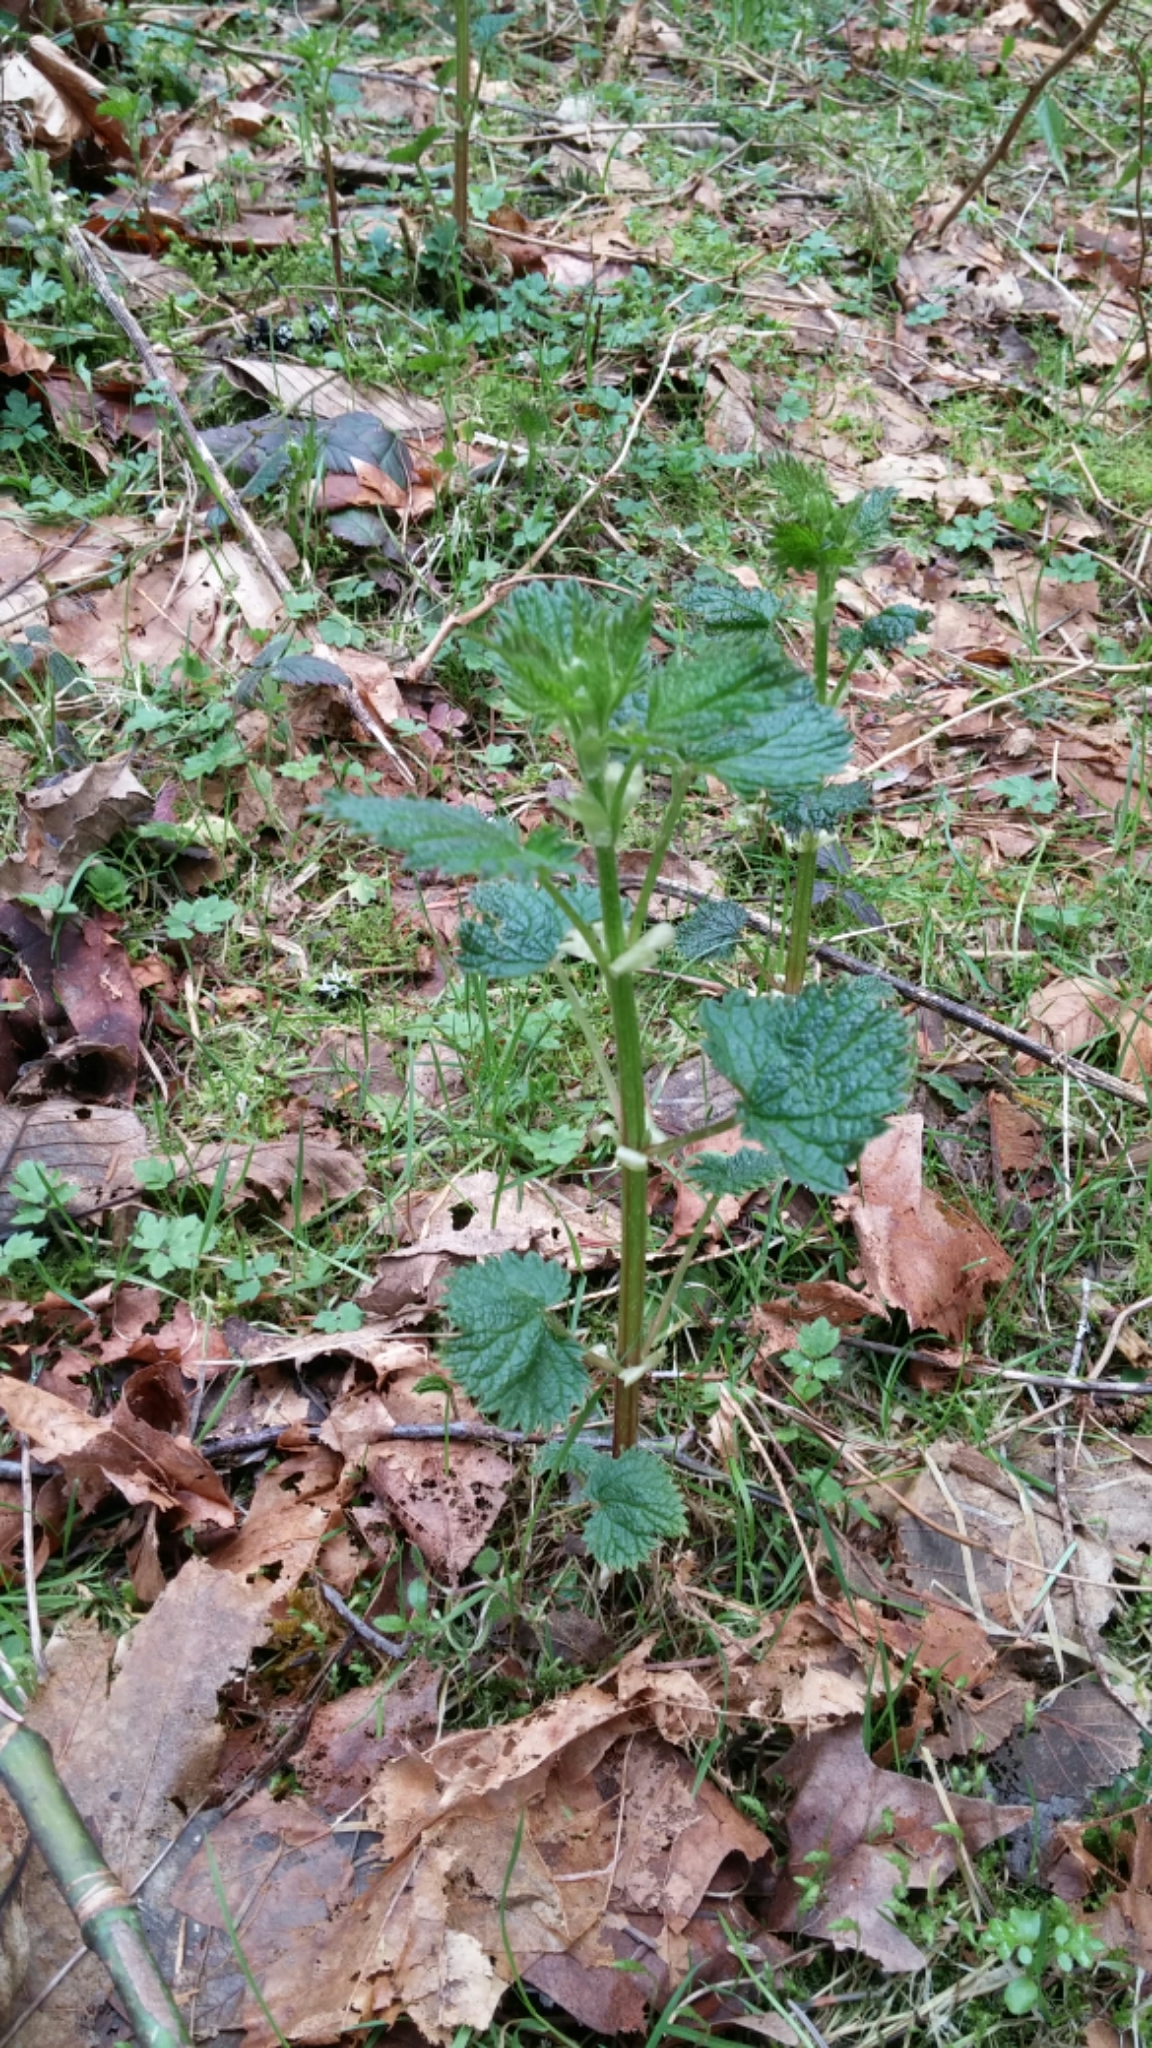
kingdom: Plantae
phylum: Tracheophyta
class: Magnoliopsida
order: Rosales
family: Urticaceae
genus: Urtica
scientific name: Urtica dioica
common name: Common nettle
